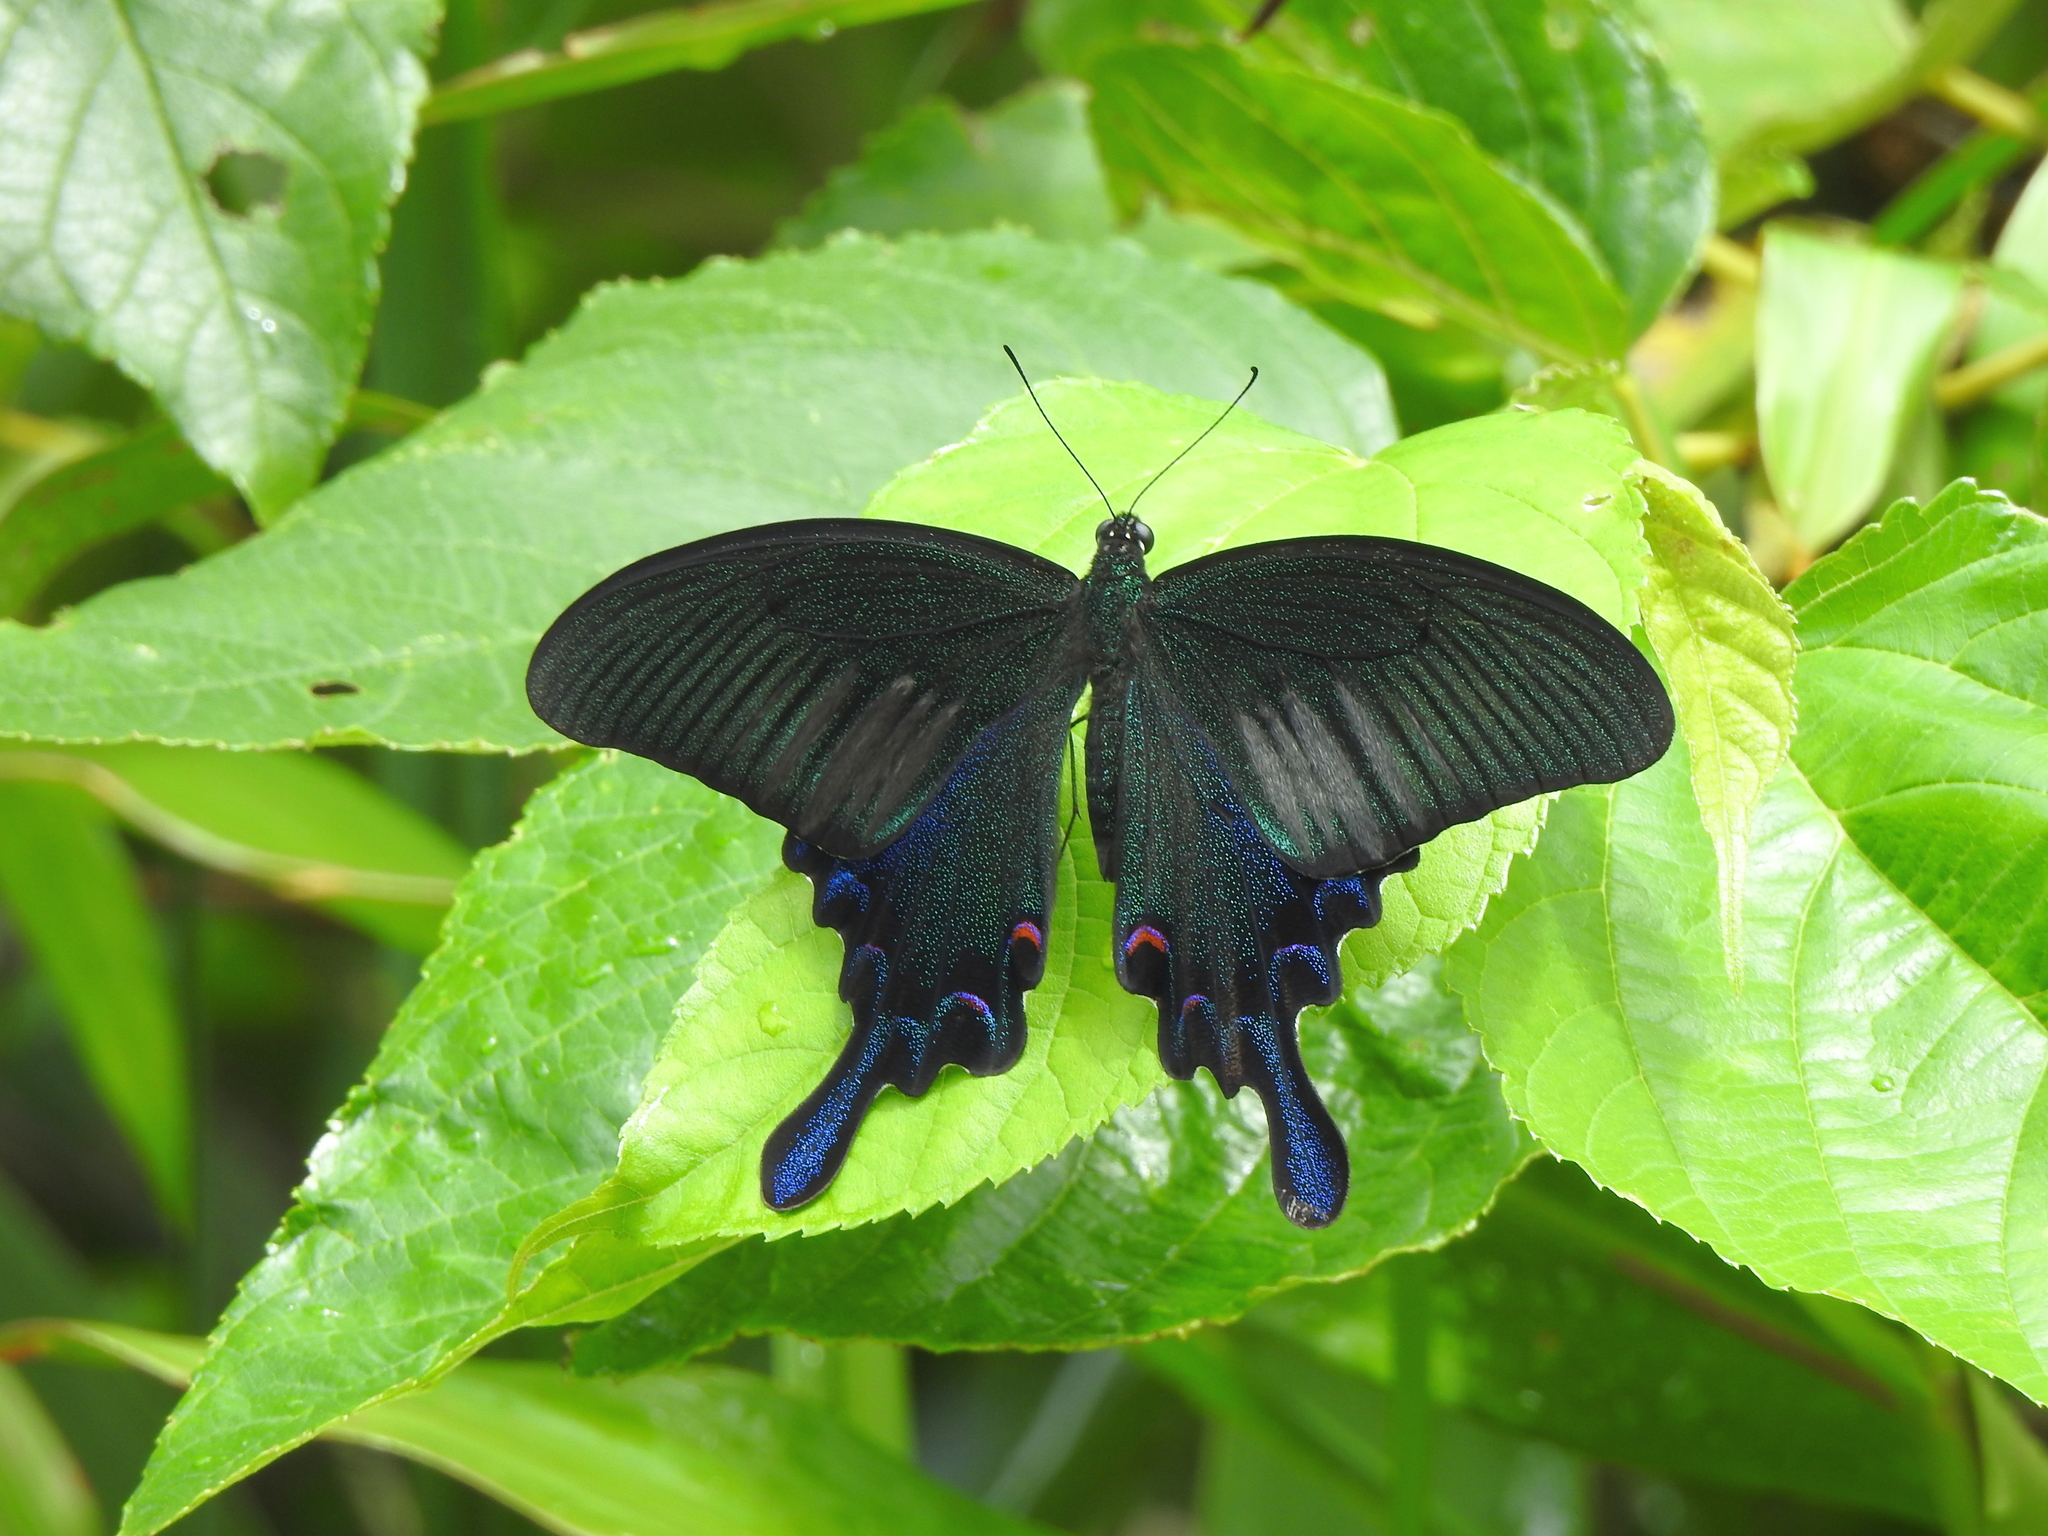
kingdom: Animalia
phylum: Arthropoda
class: Insecta
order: Lepidoptera
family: Papilionidae
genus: Papilio
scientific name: Papilio bianor
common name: Common peacock
